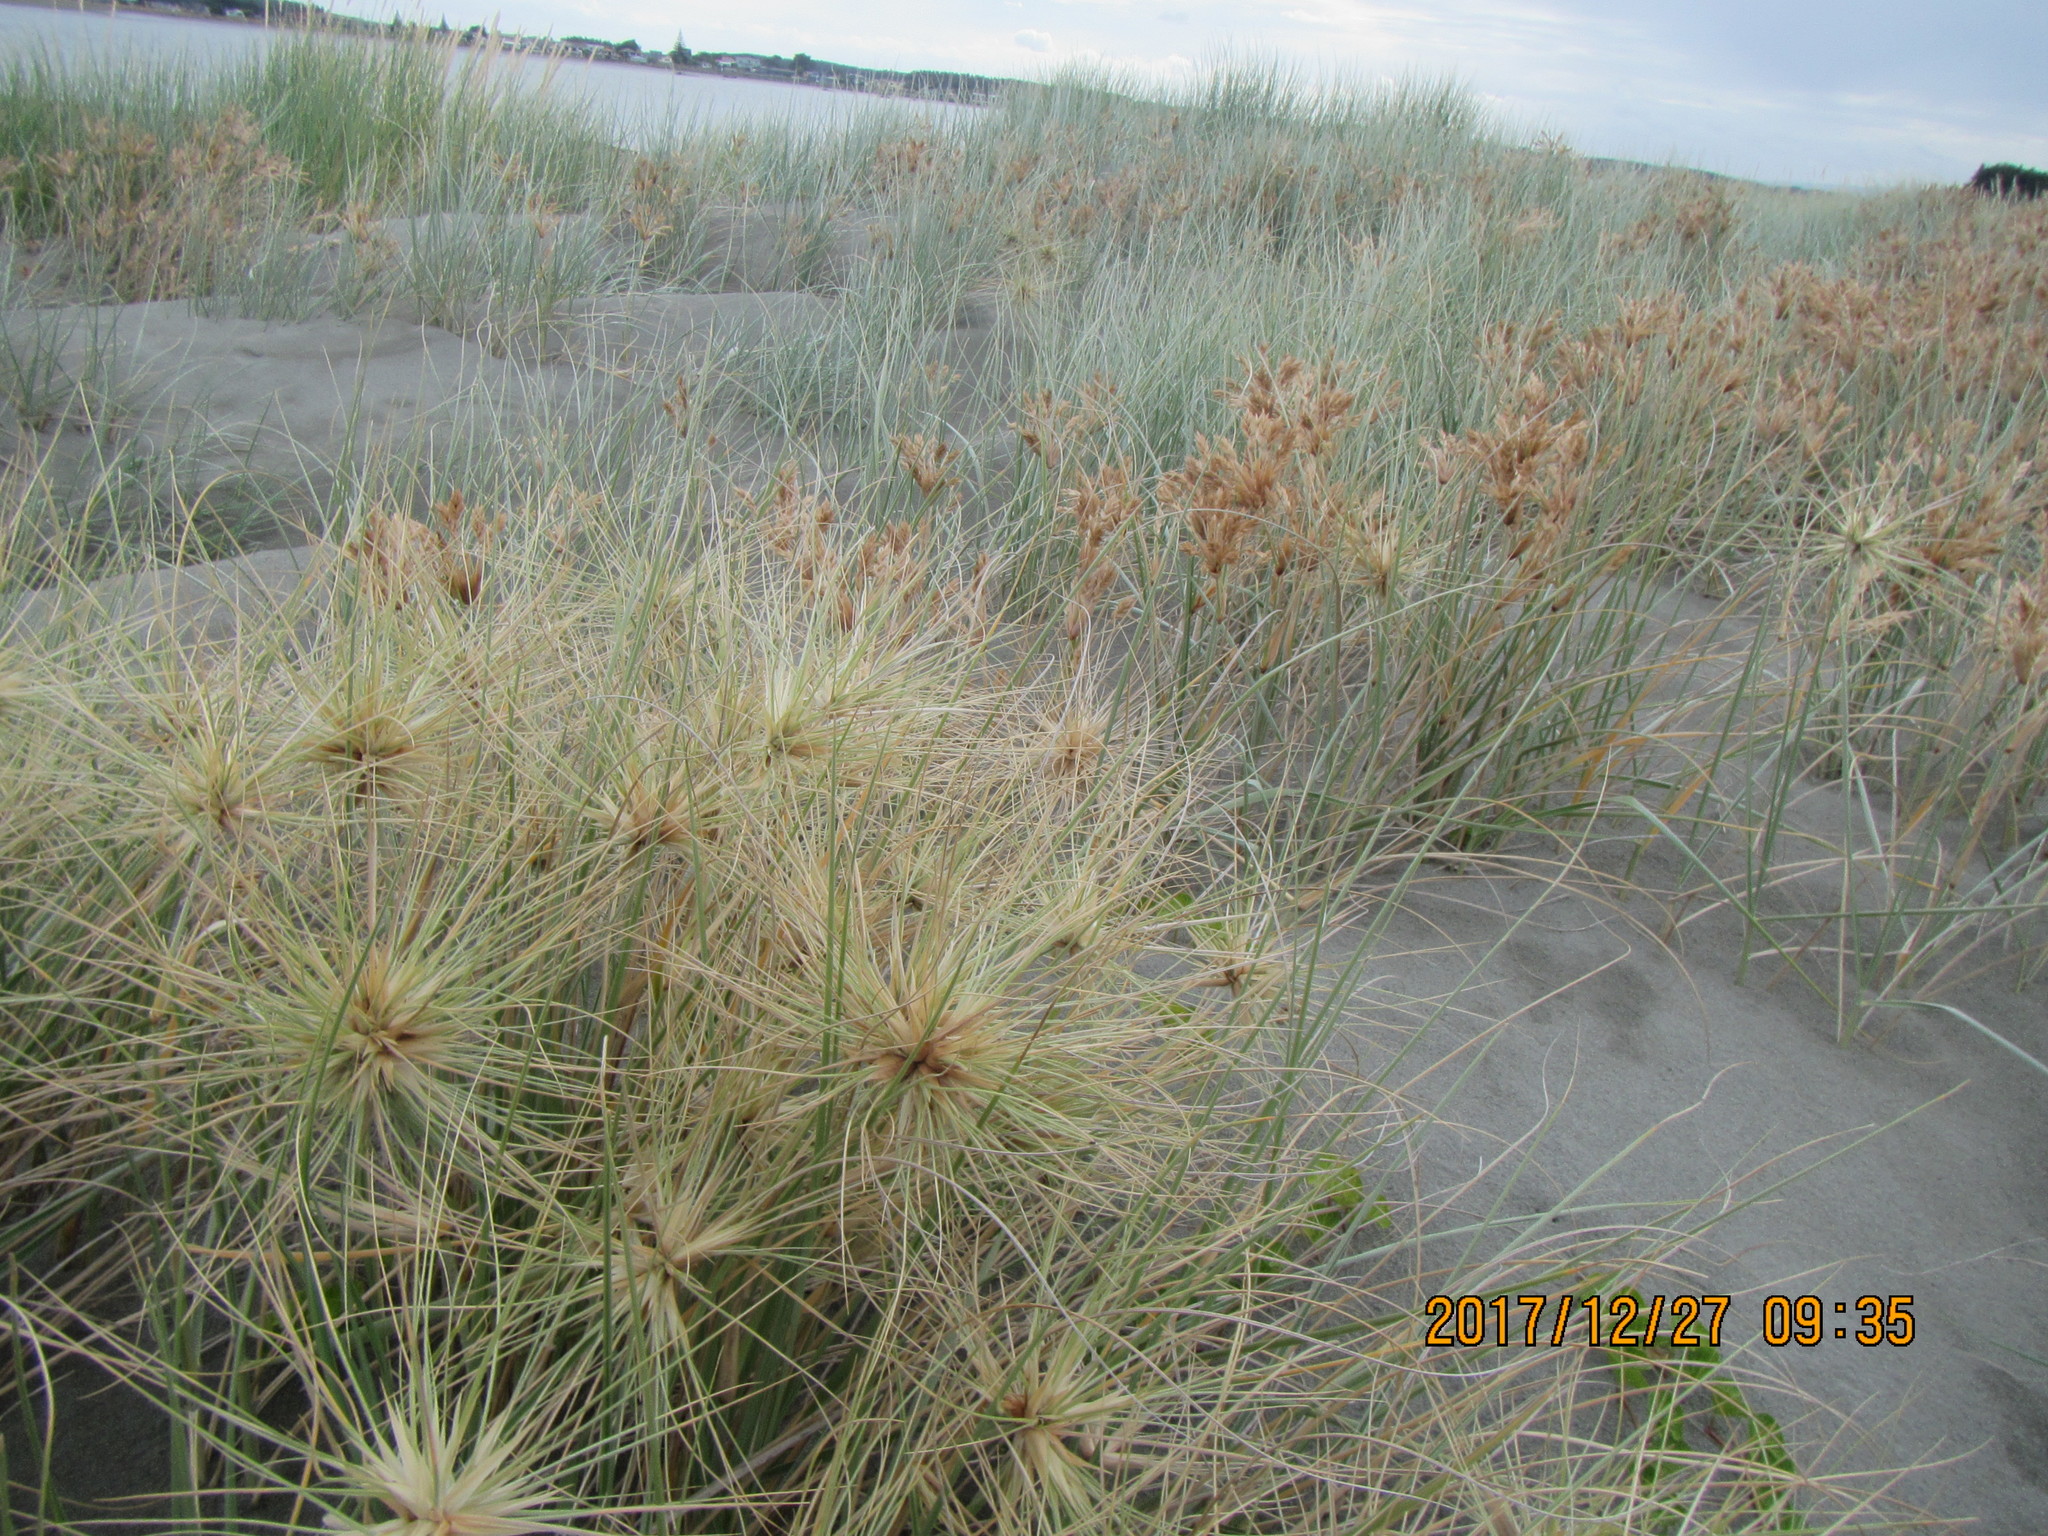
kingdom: Plantae
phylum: Tracheophyta
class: Liliopsida
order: Poales
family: Poaceae
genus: Spinifex
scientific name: Spinifex sericeus
